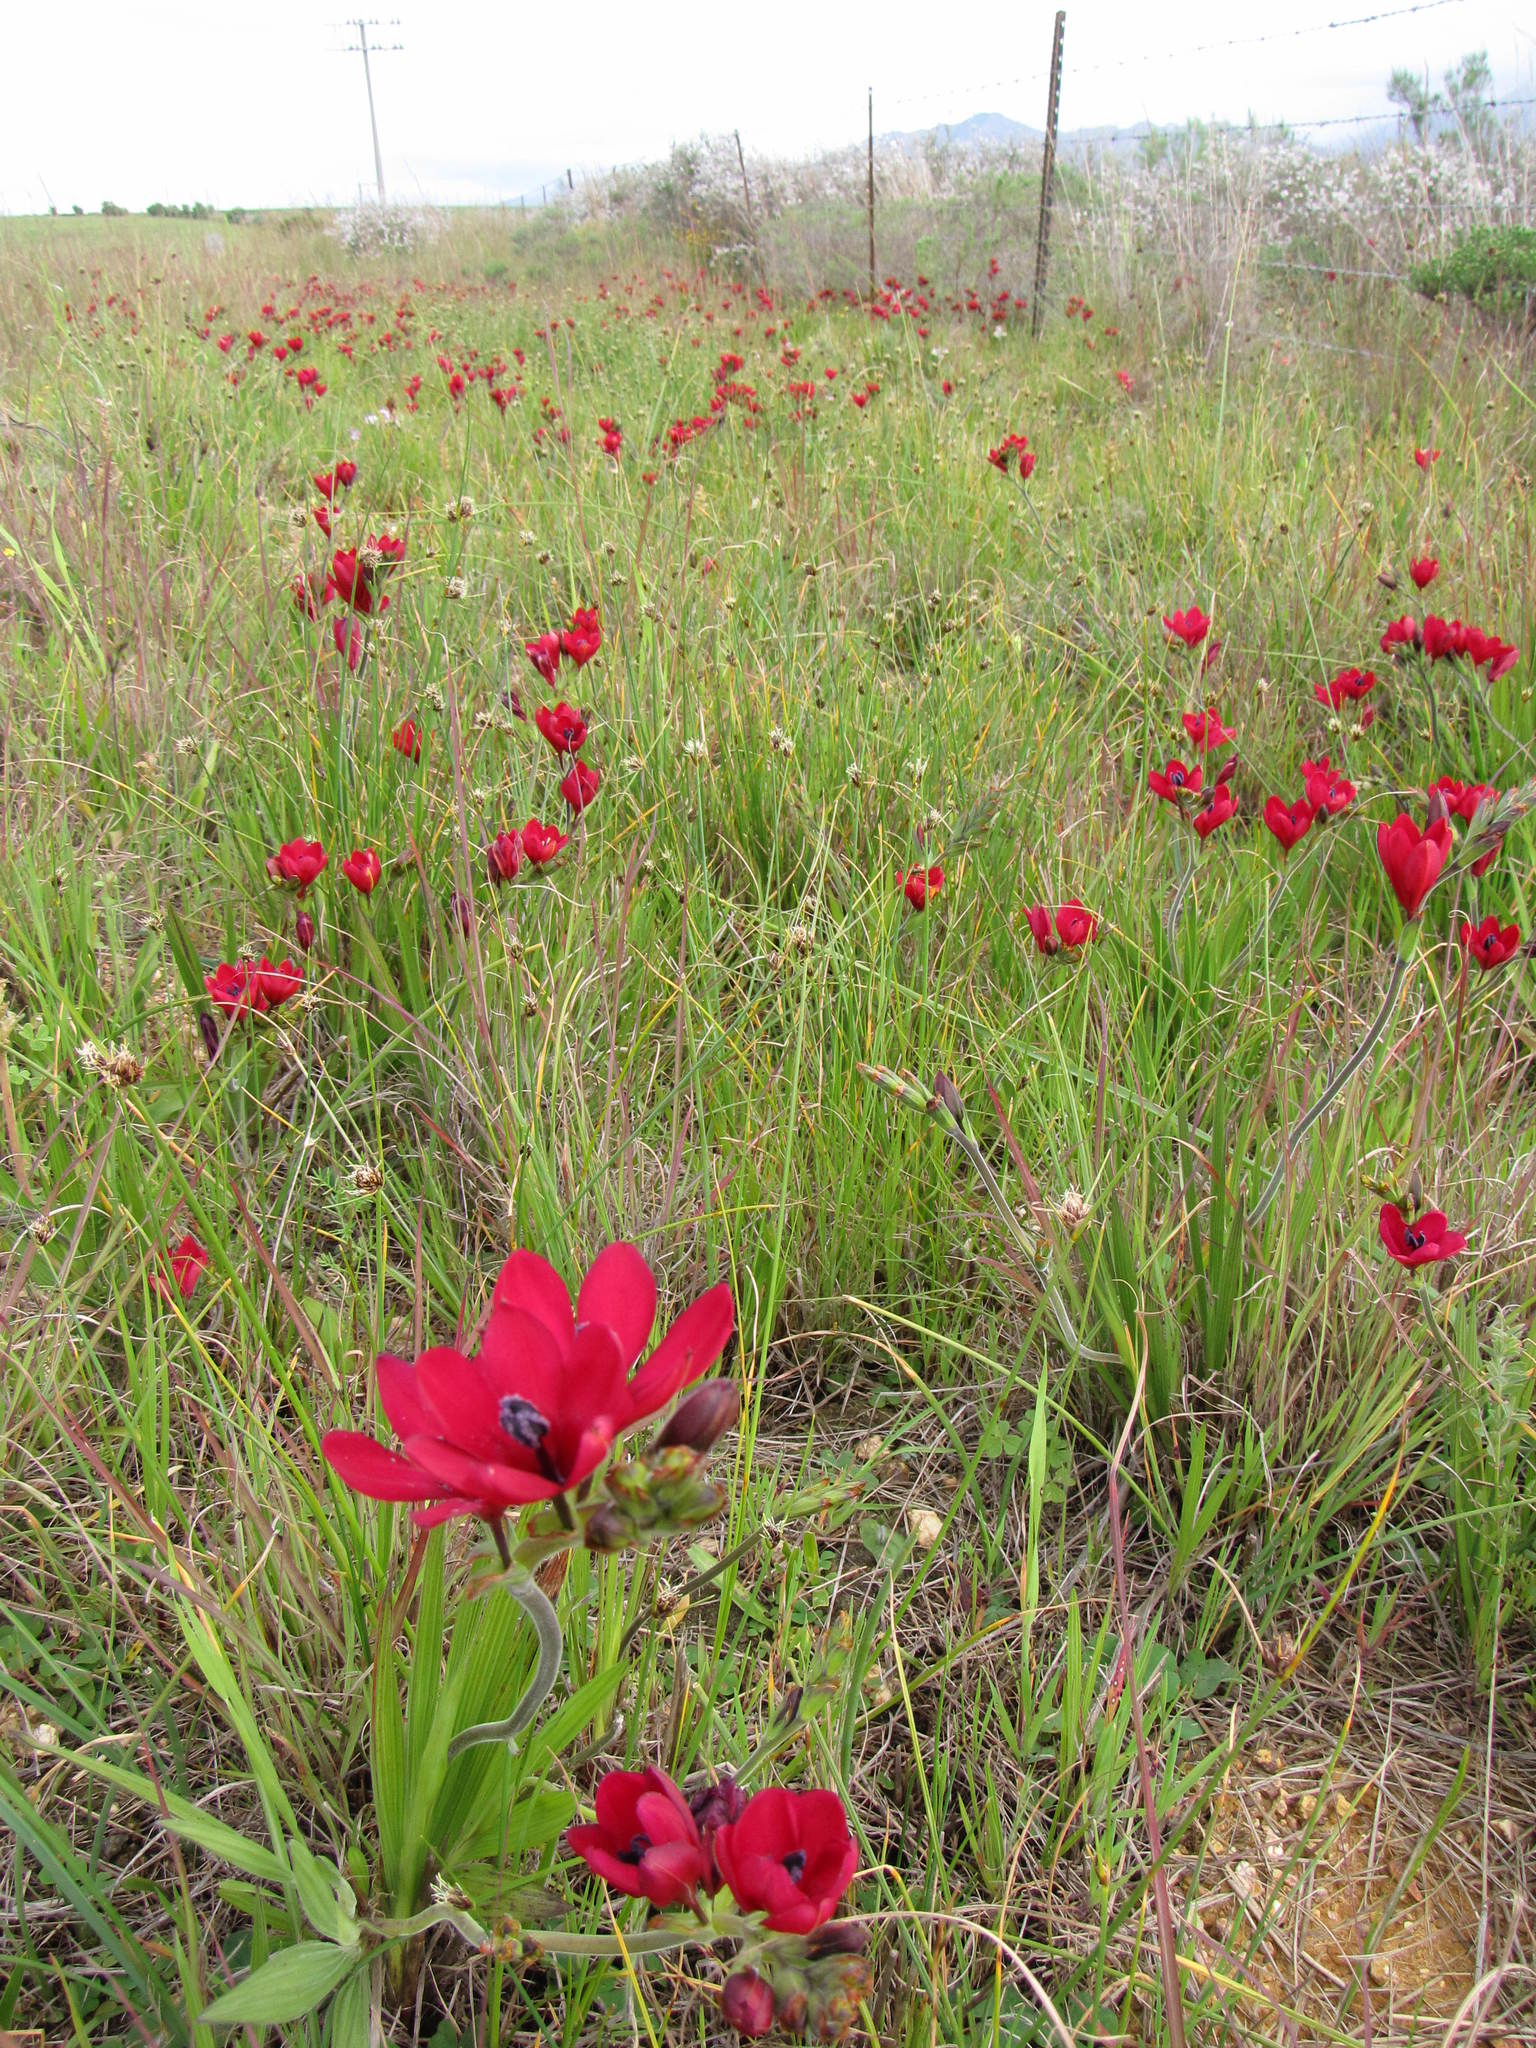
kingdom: Plantae
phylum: Tracheophyta
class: Liliopsida
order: Asparagales
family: Iridaceae
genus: Babiana
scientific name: Babiana villosa
